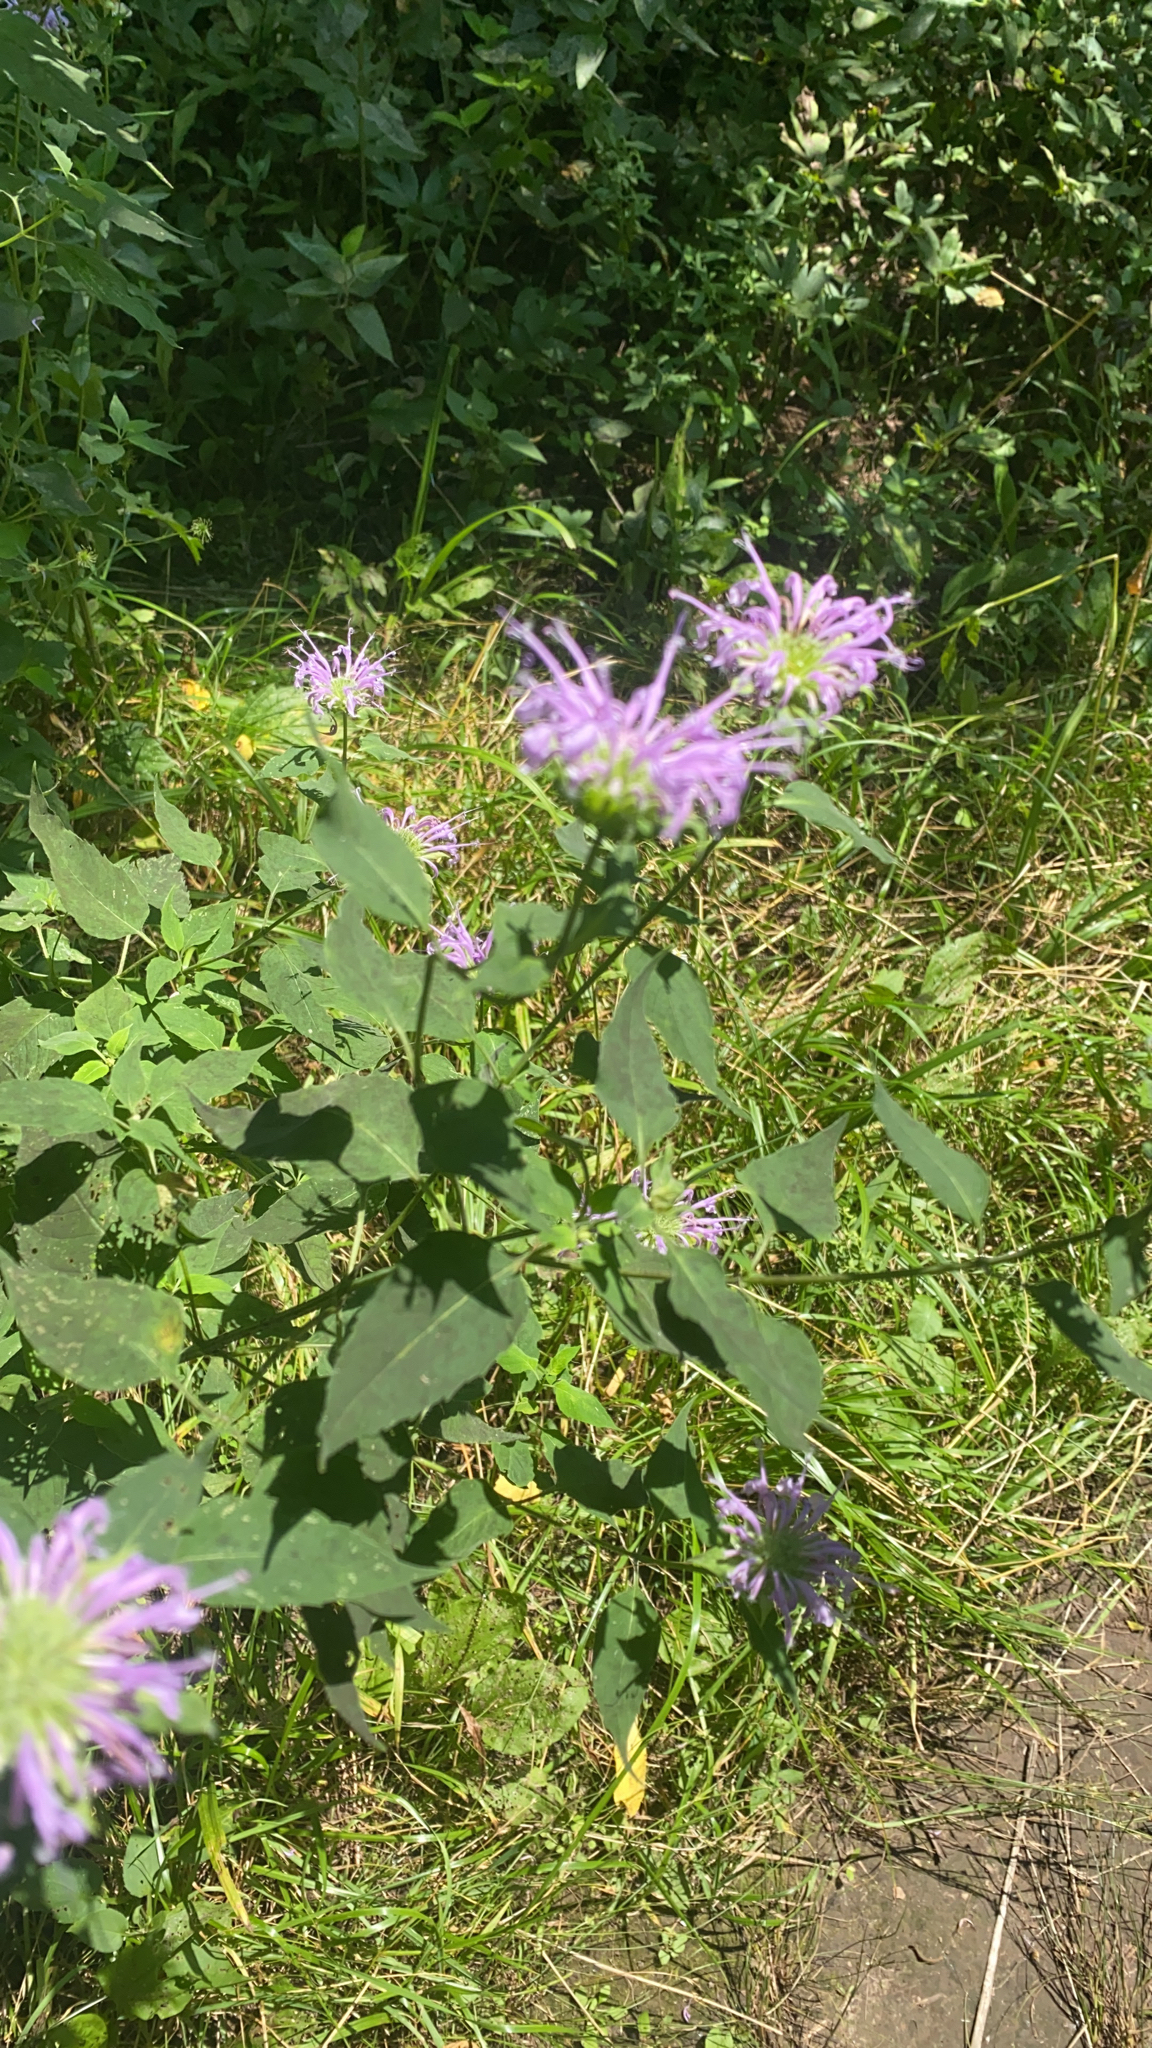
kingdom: Plantae
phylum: Tracheophyta
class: Magnoliopsida
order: Lamiales
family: Lamiaceae
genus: Monarda
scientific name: Monarda fistulosa
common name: Purple beebalm
